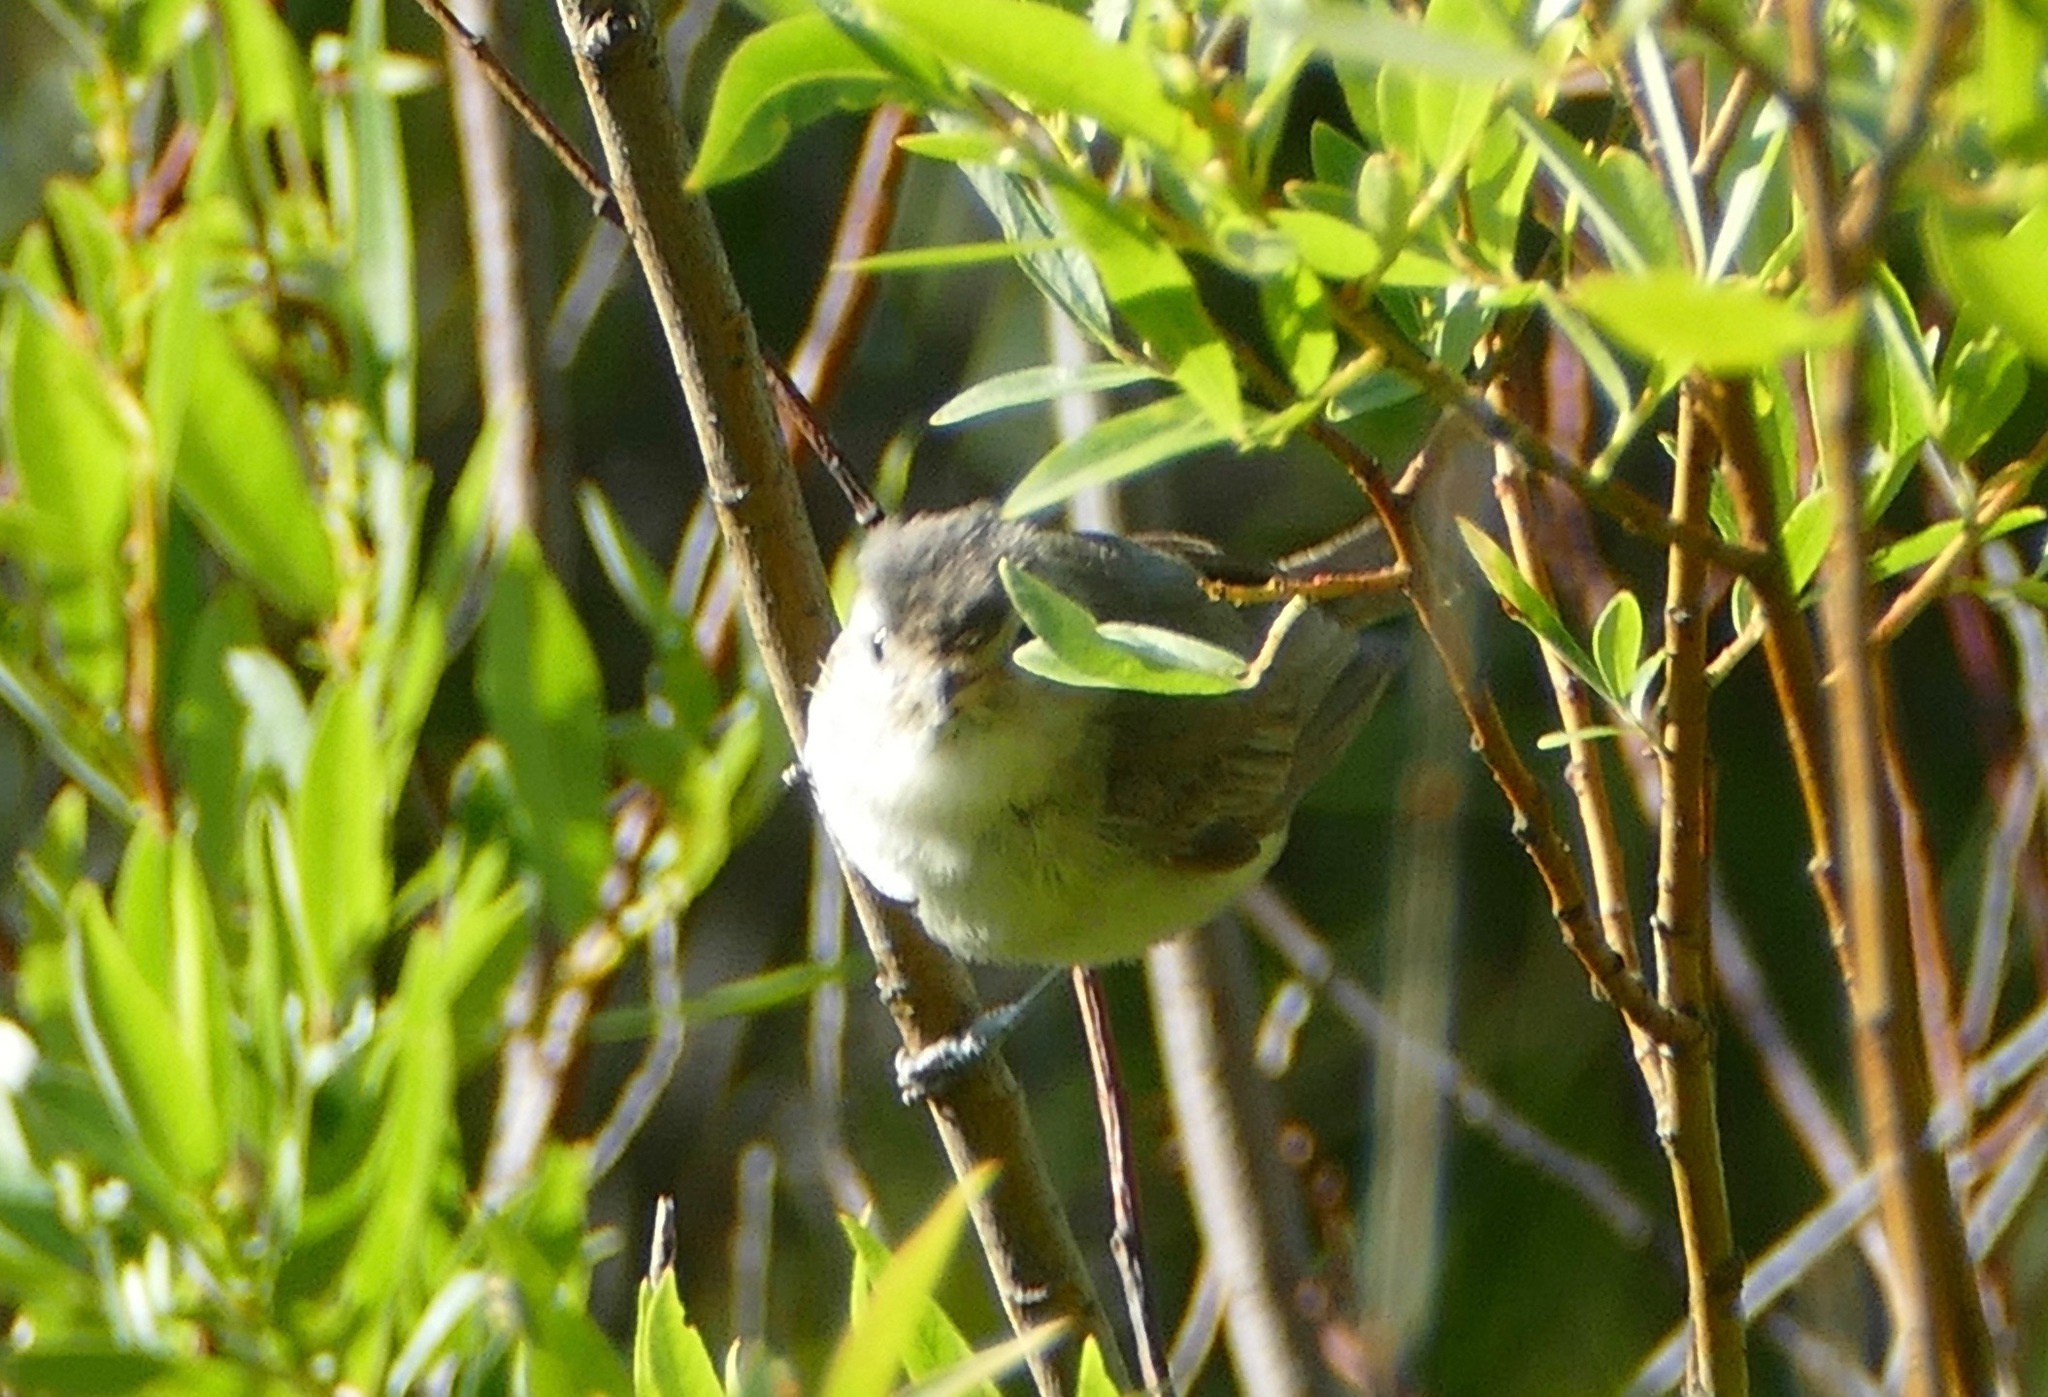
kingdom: Animalia
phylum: Chordata
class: Aves
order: Passeriformes
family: Vireonidae
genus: Vireo
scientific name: Vireo gilvus
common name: Warbling vireo
